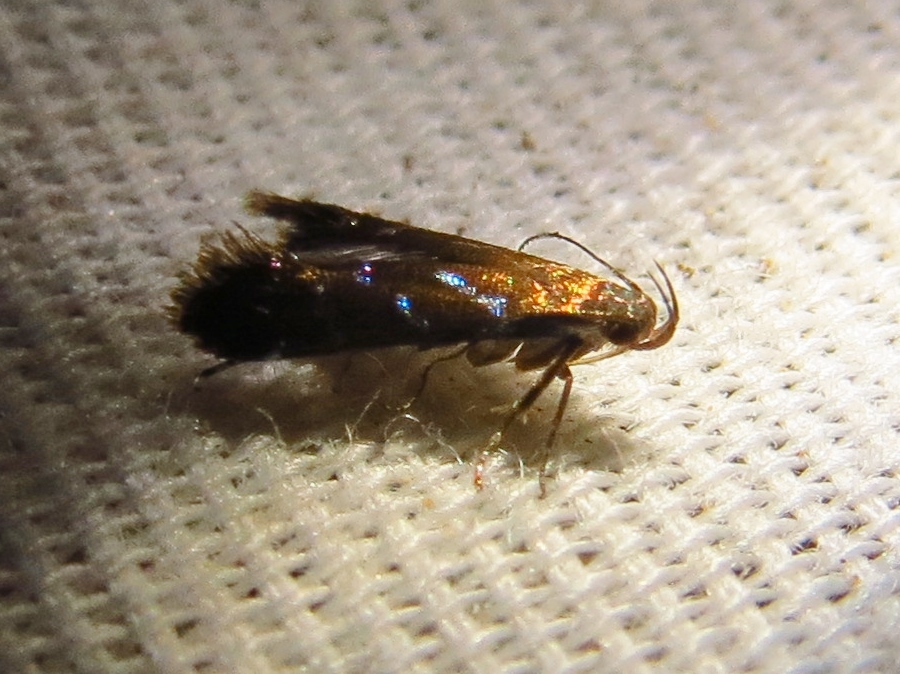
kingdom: Animalia
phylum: Arthropoda
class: Insecta
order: Lepidoptera
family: Gelechiidae
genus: Strobisia
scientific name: Strobisia proserpinella
